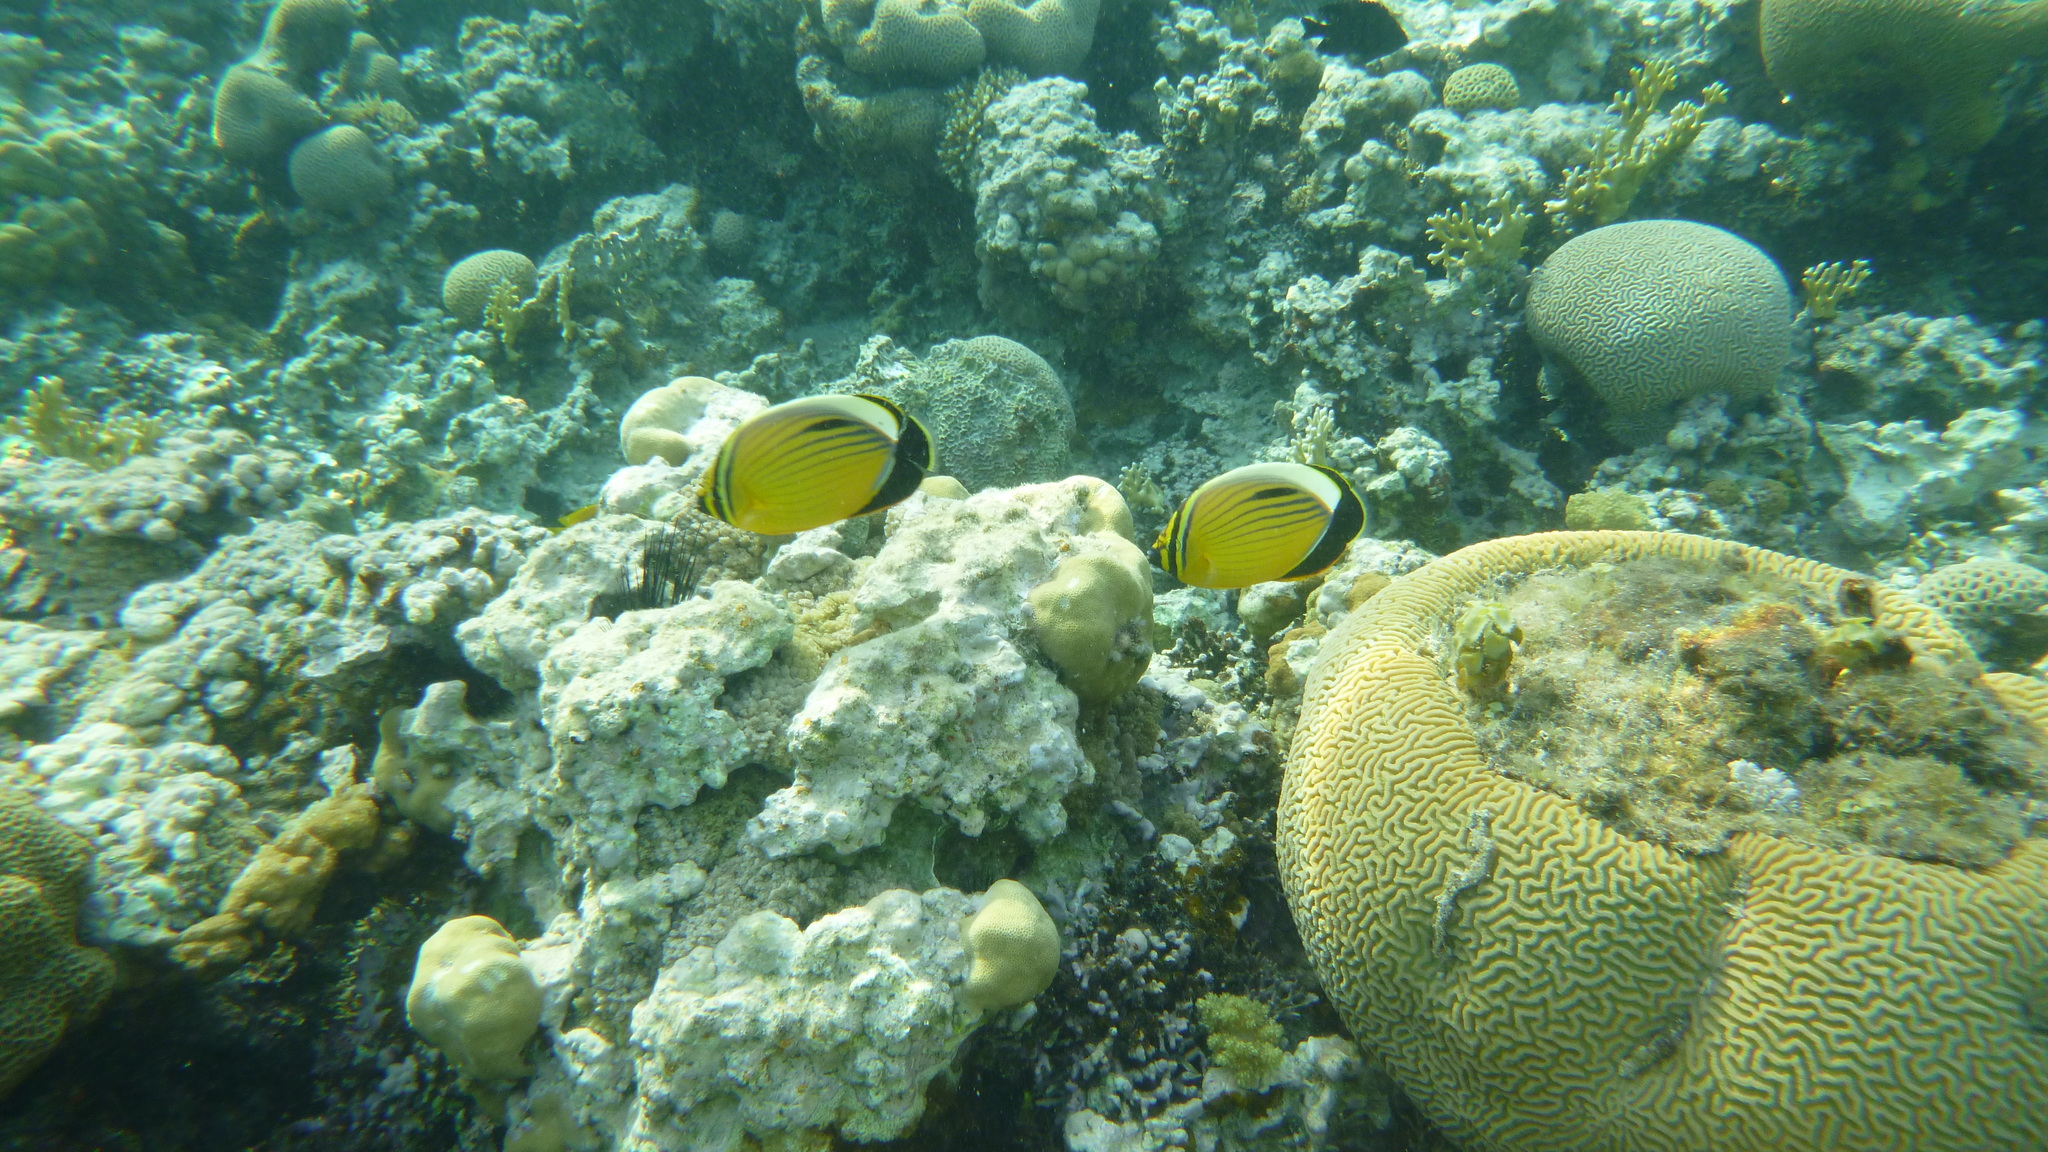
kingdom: Animalia
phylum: Chordata
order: Perciformes
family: Chaetodontidae
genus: Chaetodon
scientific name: Chaetodon austriacus
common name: Exquisite butterflyfish
